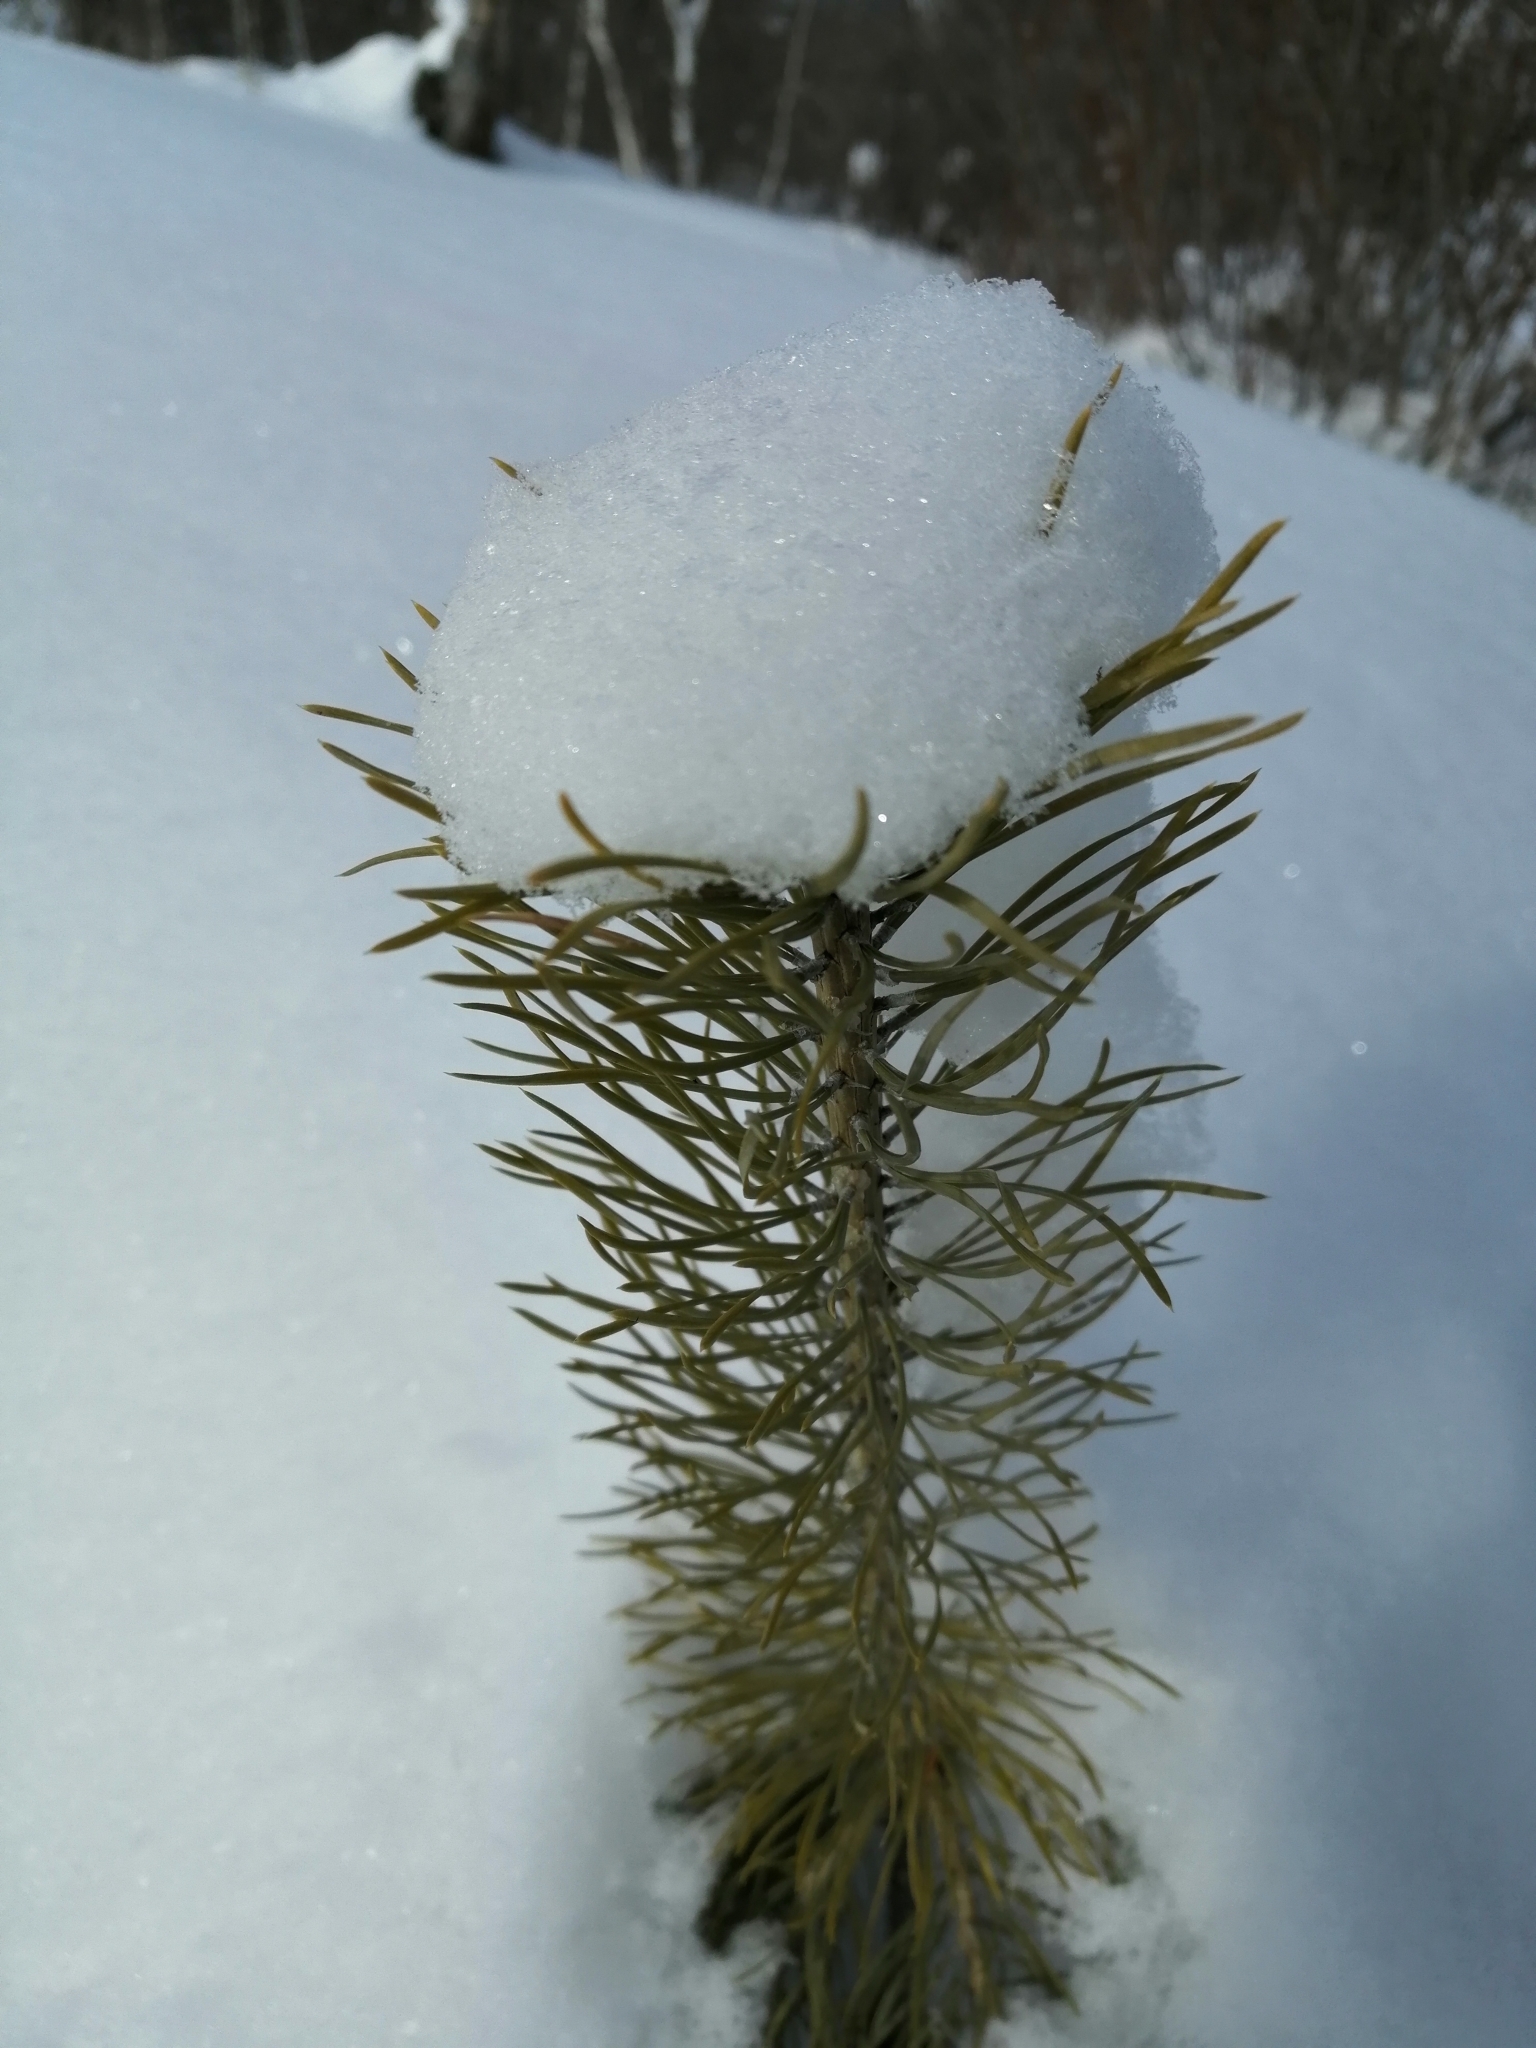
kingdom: Plantae
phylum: Tracheophyta
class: Pinopsida
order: Pinales
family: Pinaceae
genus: Pinus
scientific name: Pinus sylvestris
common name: Scots pine
